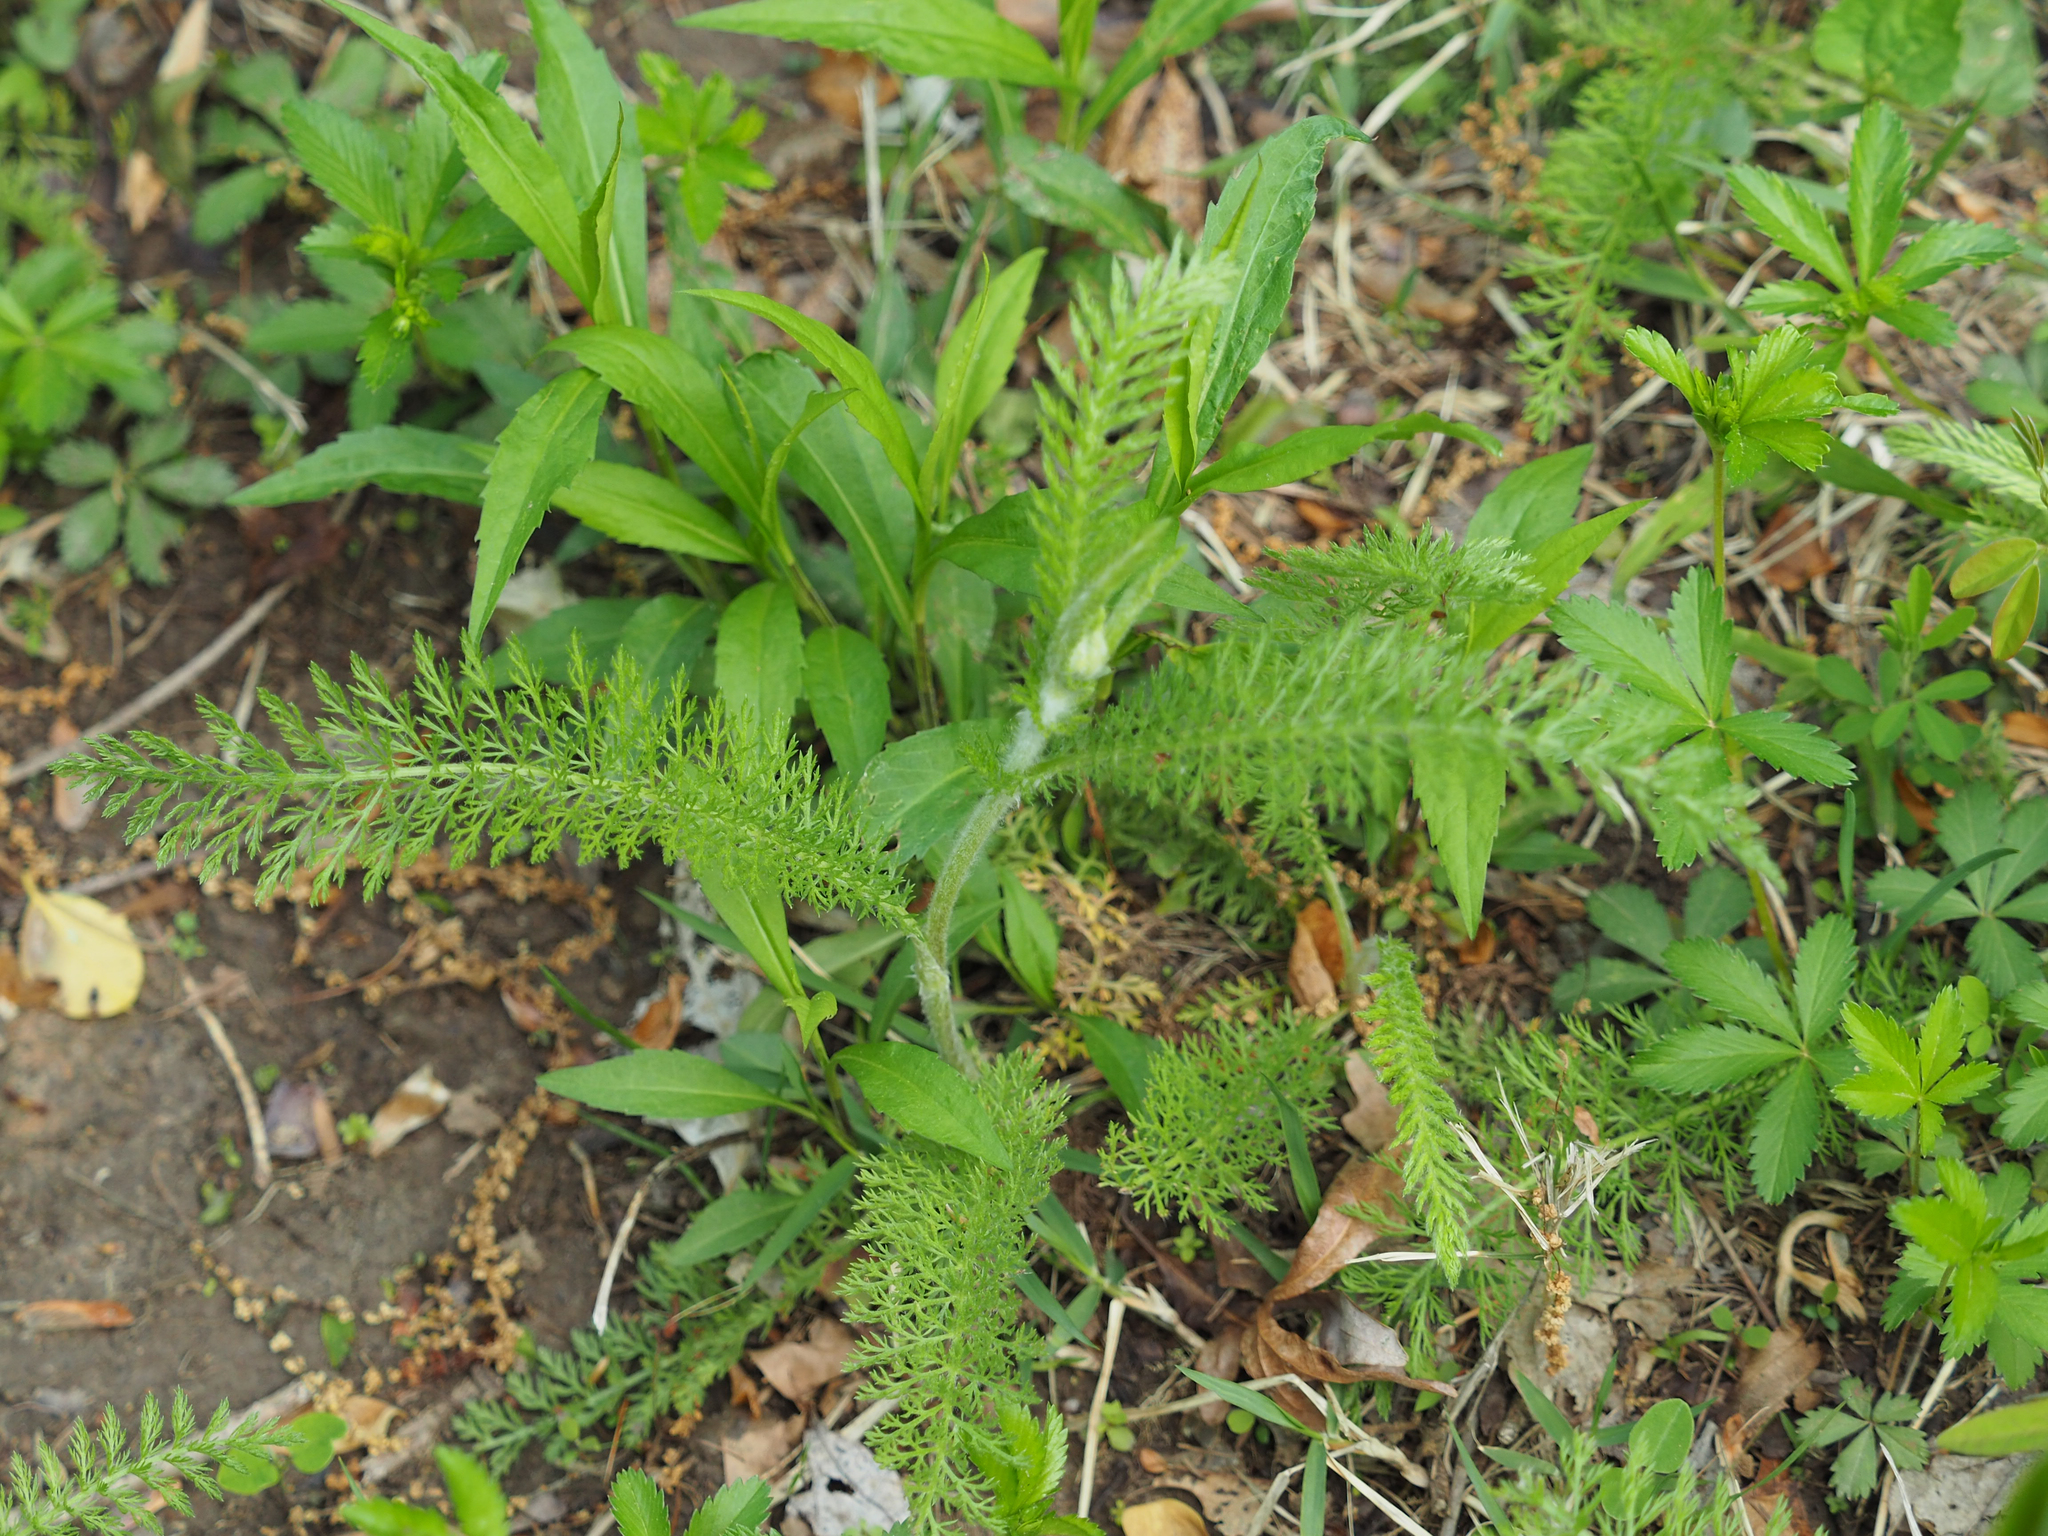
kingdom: Plantae
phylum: Tracheophyta
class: Magnoliopsida
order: Asterales
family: Asteraceae
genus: Achillea
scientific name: Achillea millefolium
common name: Yarrow
